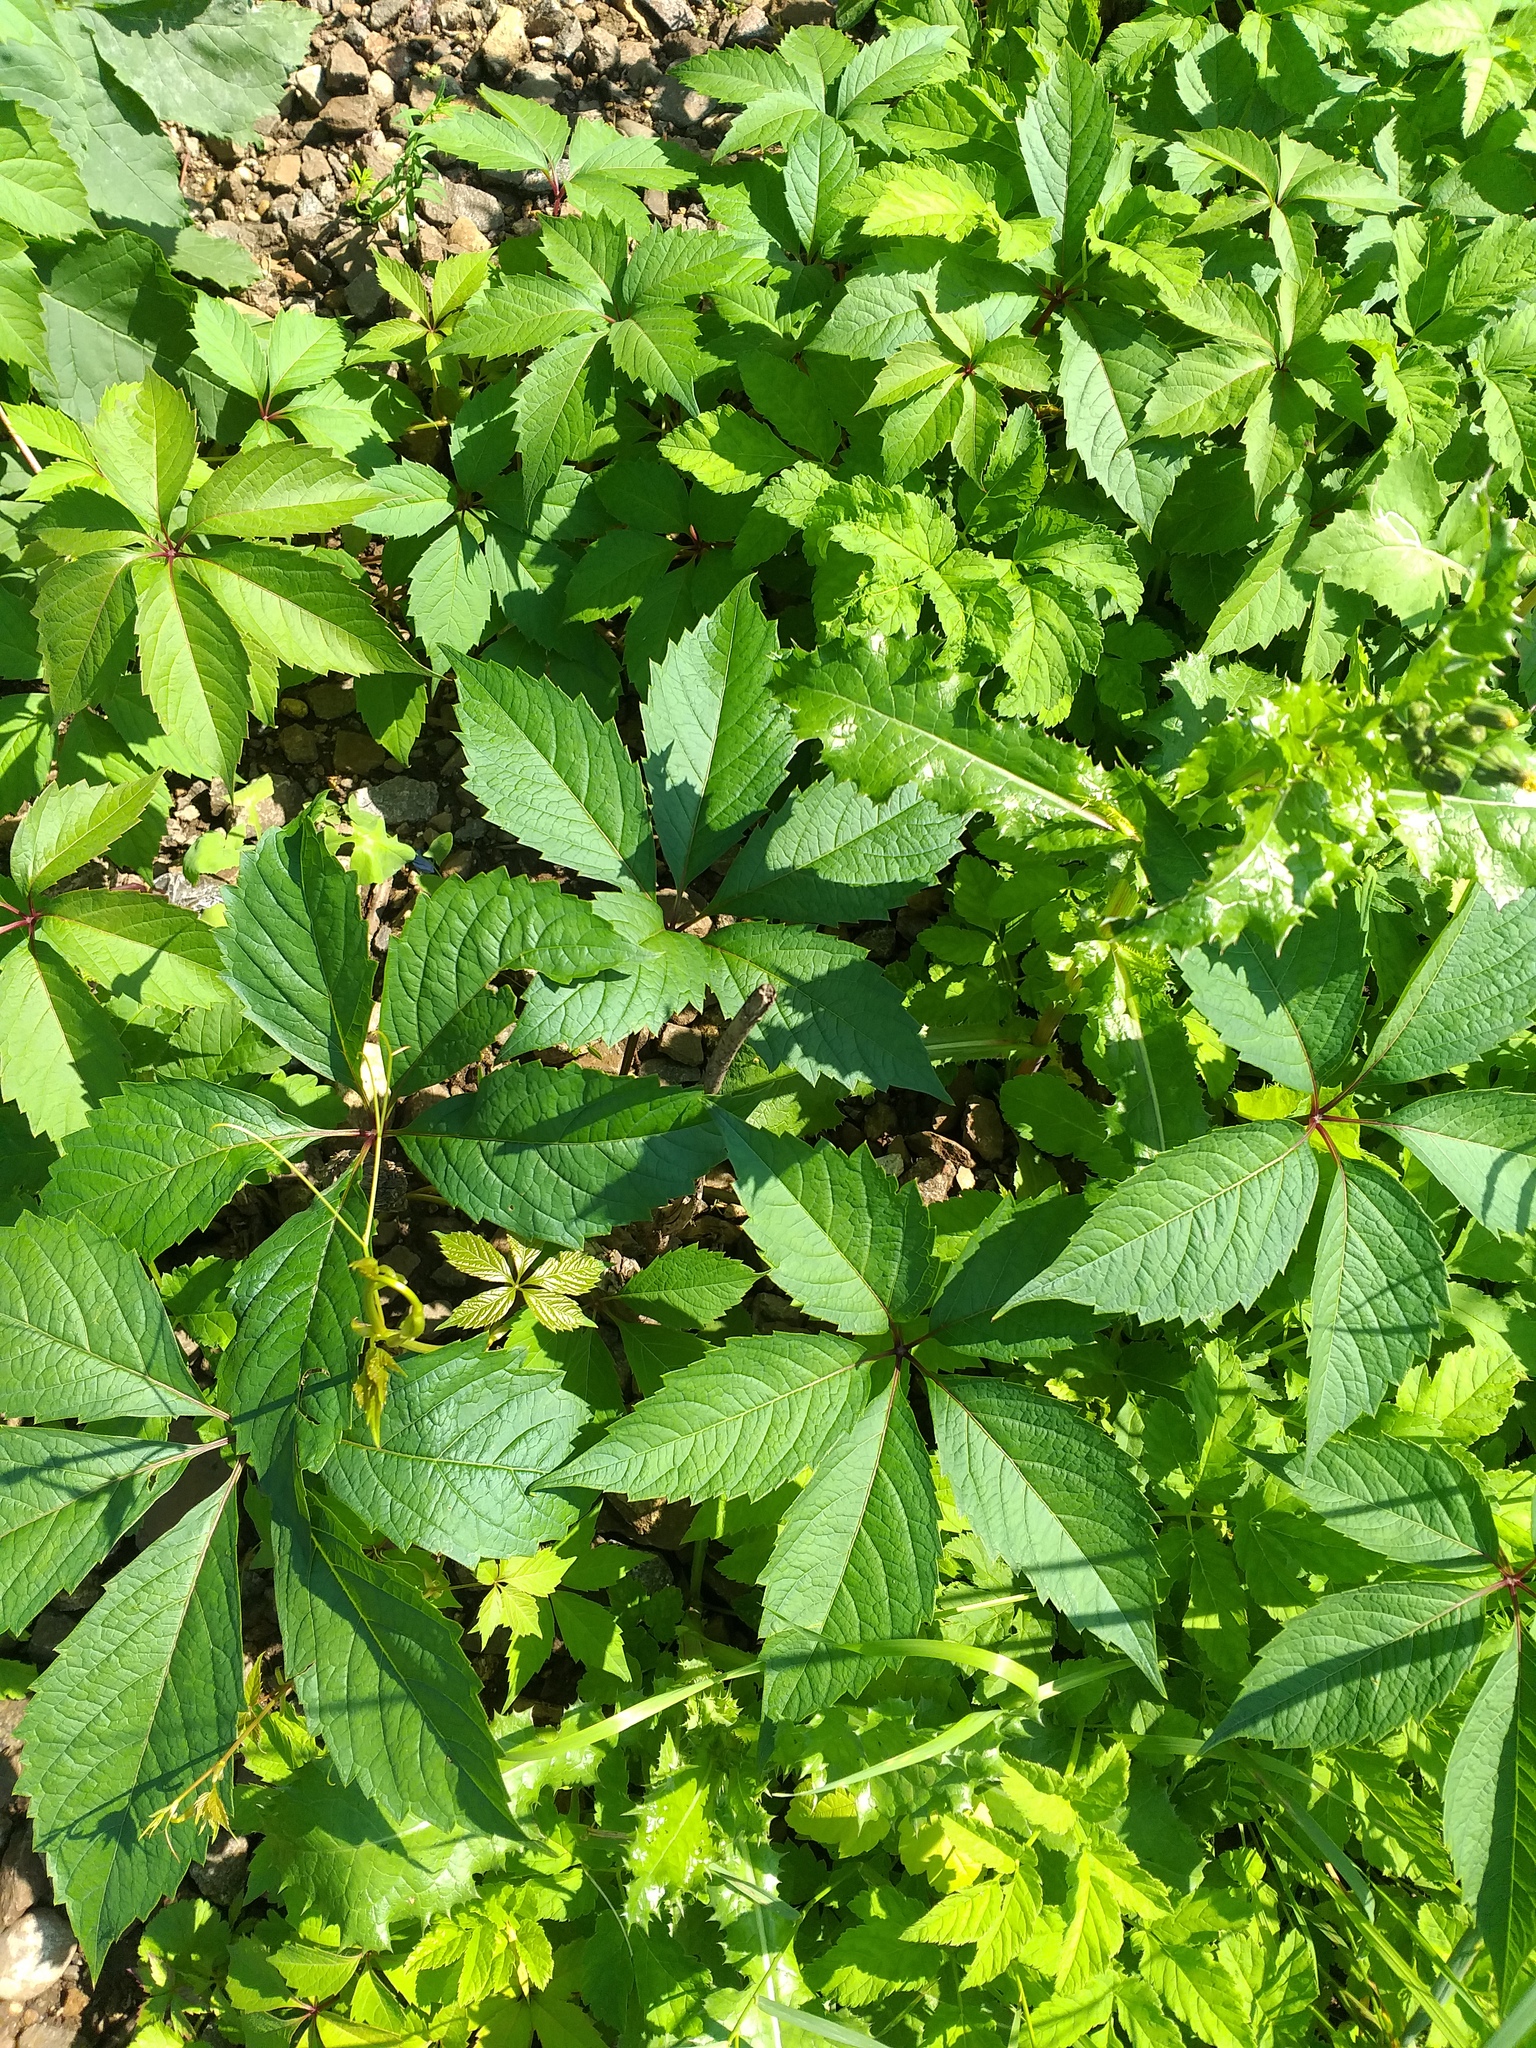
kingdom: Plantae
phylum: Tracheophyta
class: Magnoliopsida
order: Vitales
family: Vitaceae
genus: Parthenocissus
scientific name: Parthenocissus inserta
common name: False virginia-creeper
